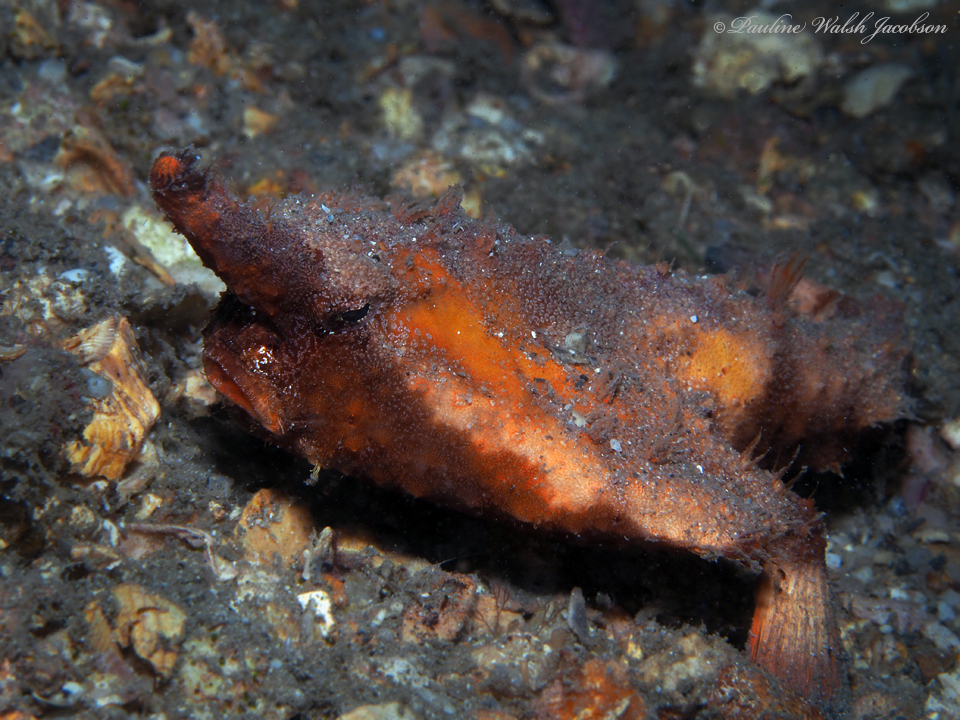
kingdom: Animalia
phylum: Chordata
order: Lophiiformes
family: Ogcocephalidae
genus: Ogcocephalus
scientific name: Ogcocephalus corniger
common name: Longnose batfish
